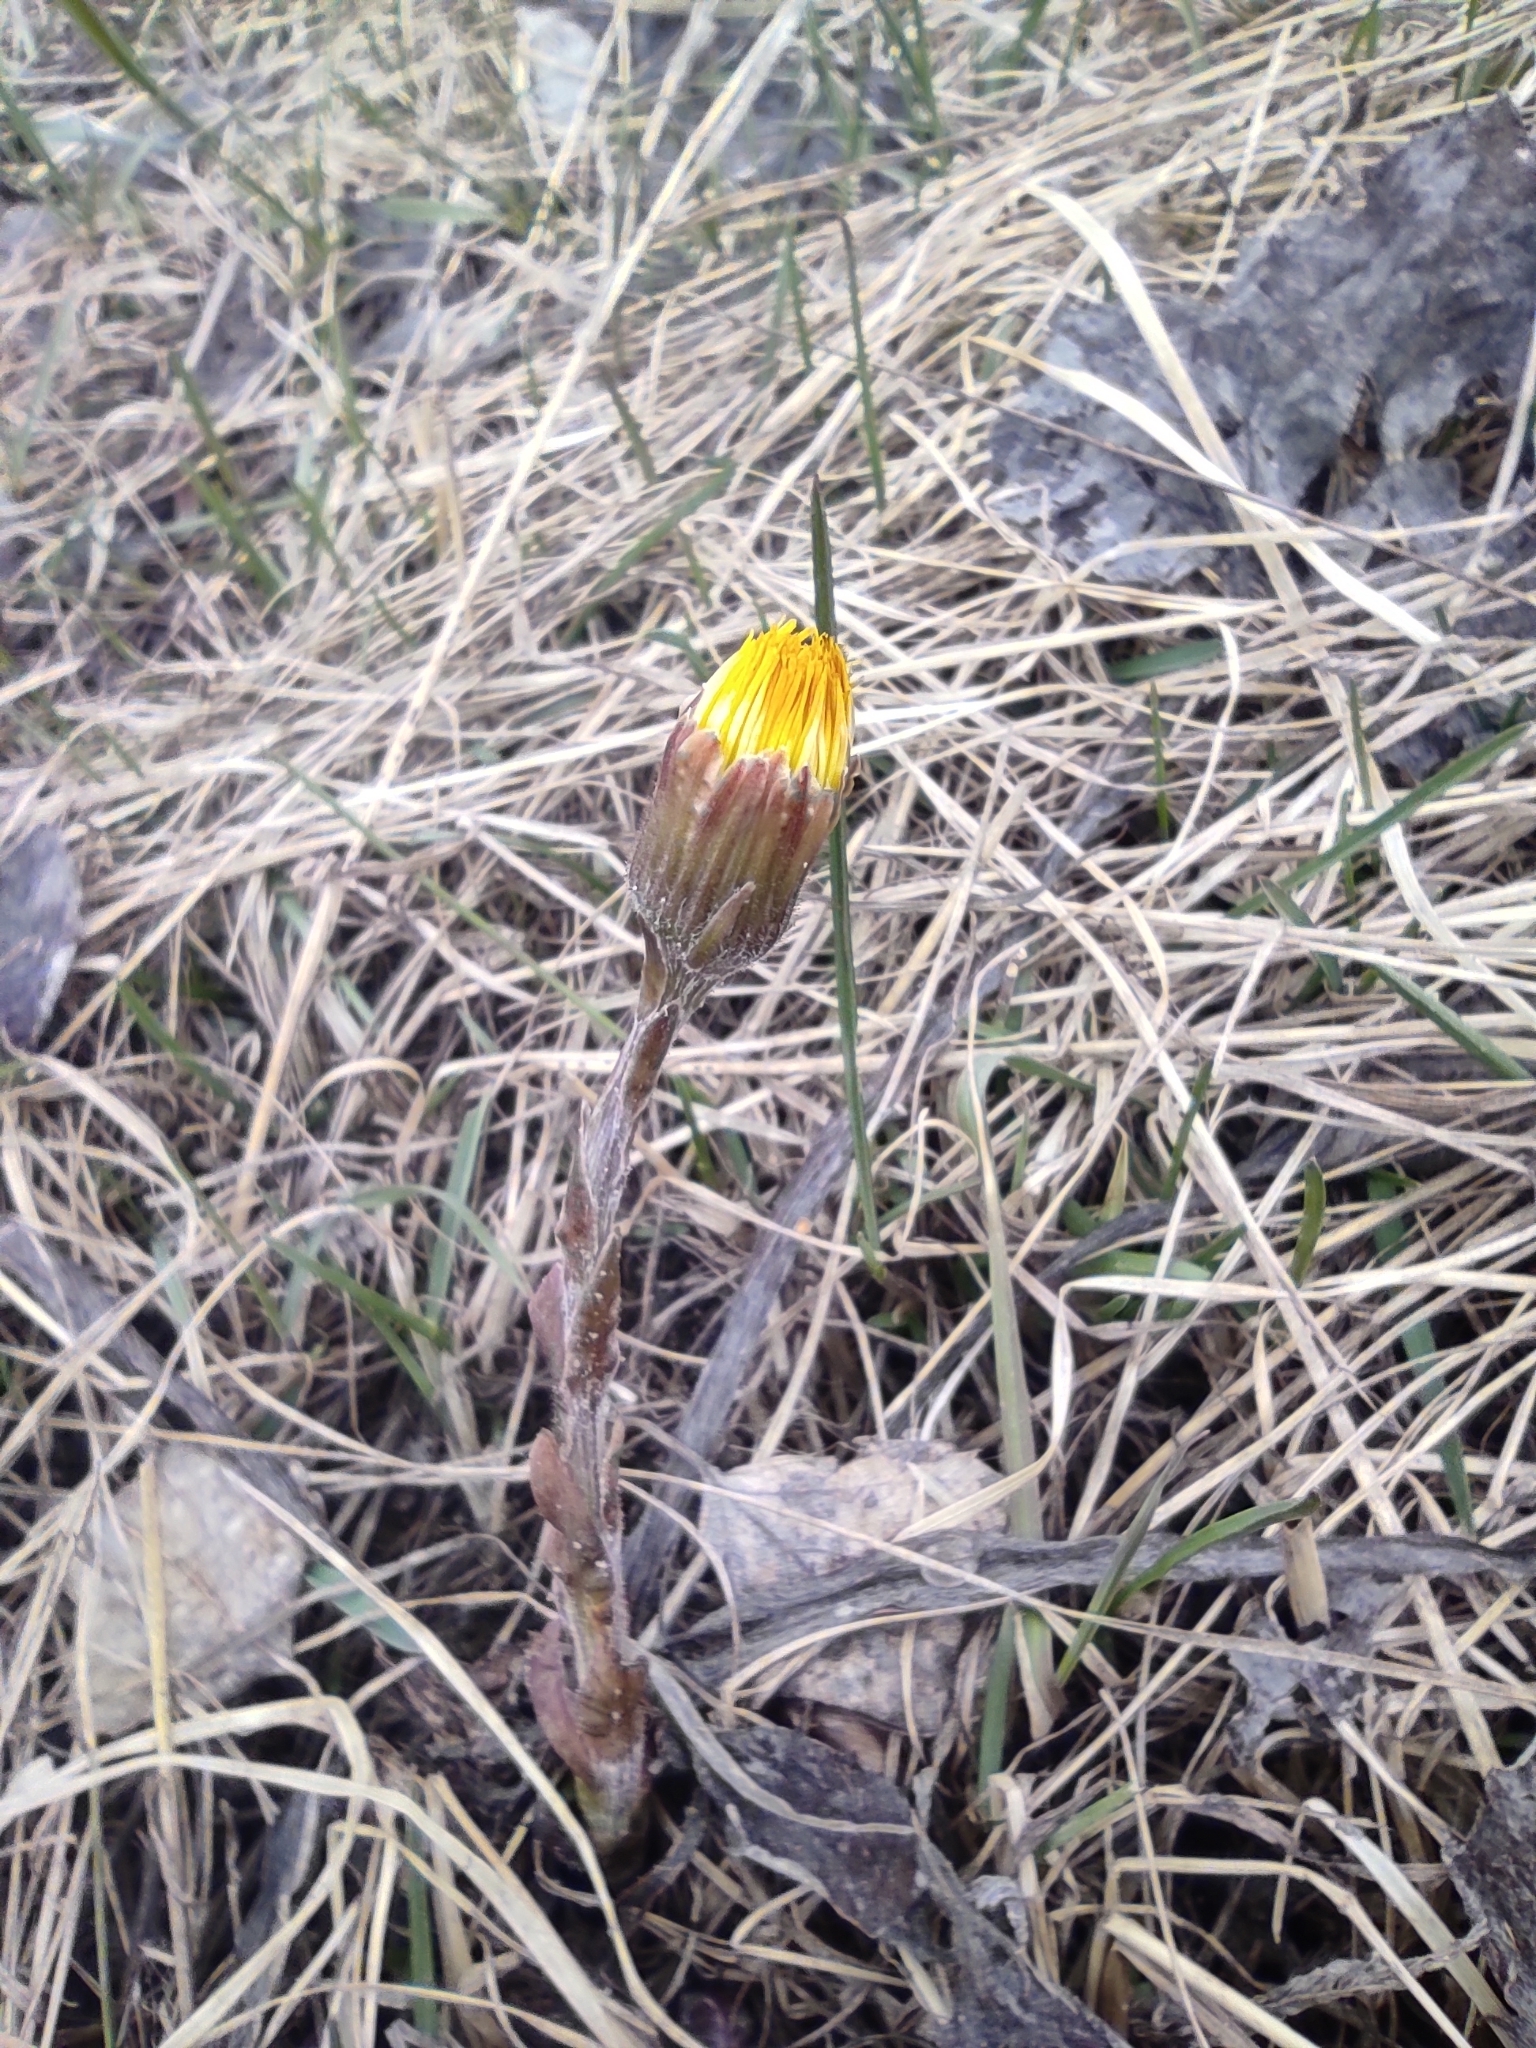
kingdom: Plantae
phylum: Tracheophyta
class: Magnoliopsida
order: Asterales
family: Asteraceae
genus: Tussilago
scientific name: Tussilago farfara
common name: Coltsfoot
